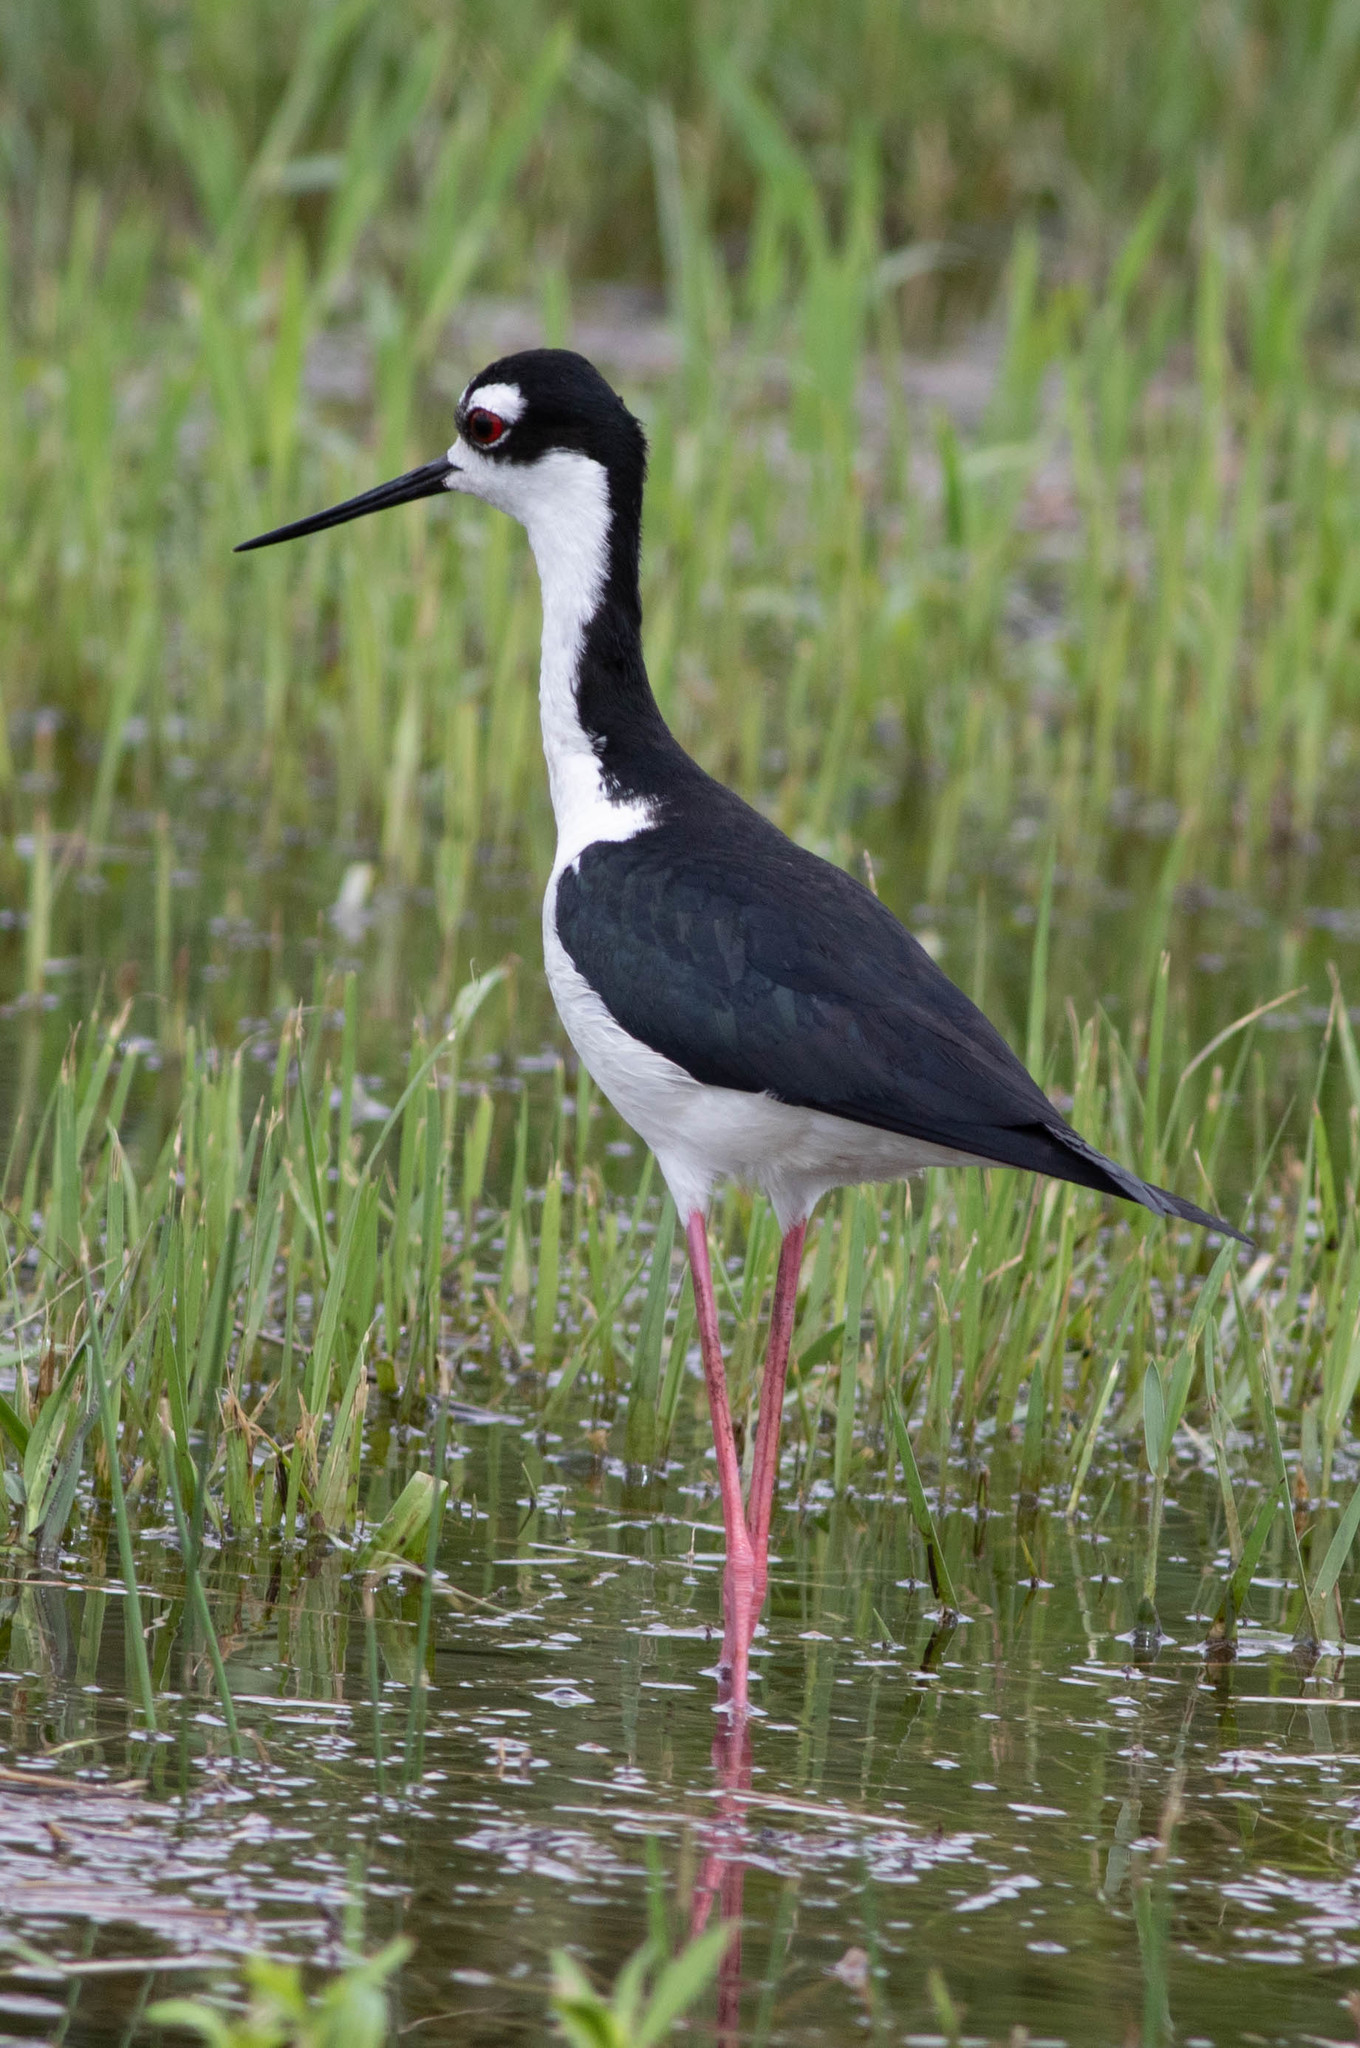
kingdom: Animalia
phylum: Chordata
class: Aves
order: Charadriiformes
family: Recurvirostridae
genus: Himantopus
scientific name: Himantopus mexicanus
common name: Black-necked stilt
